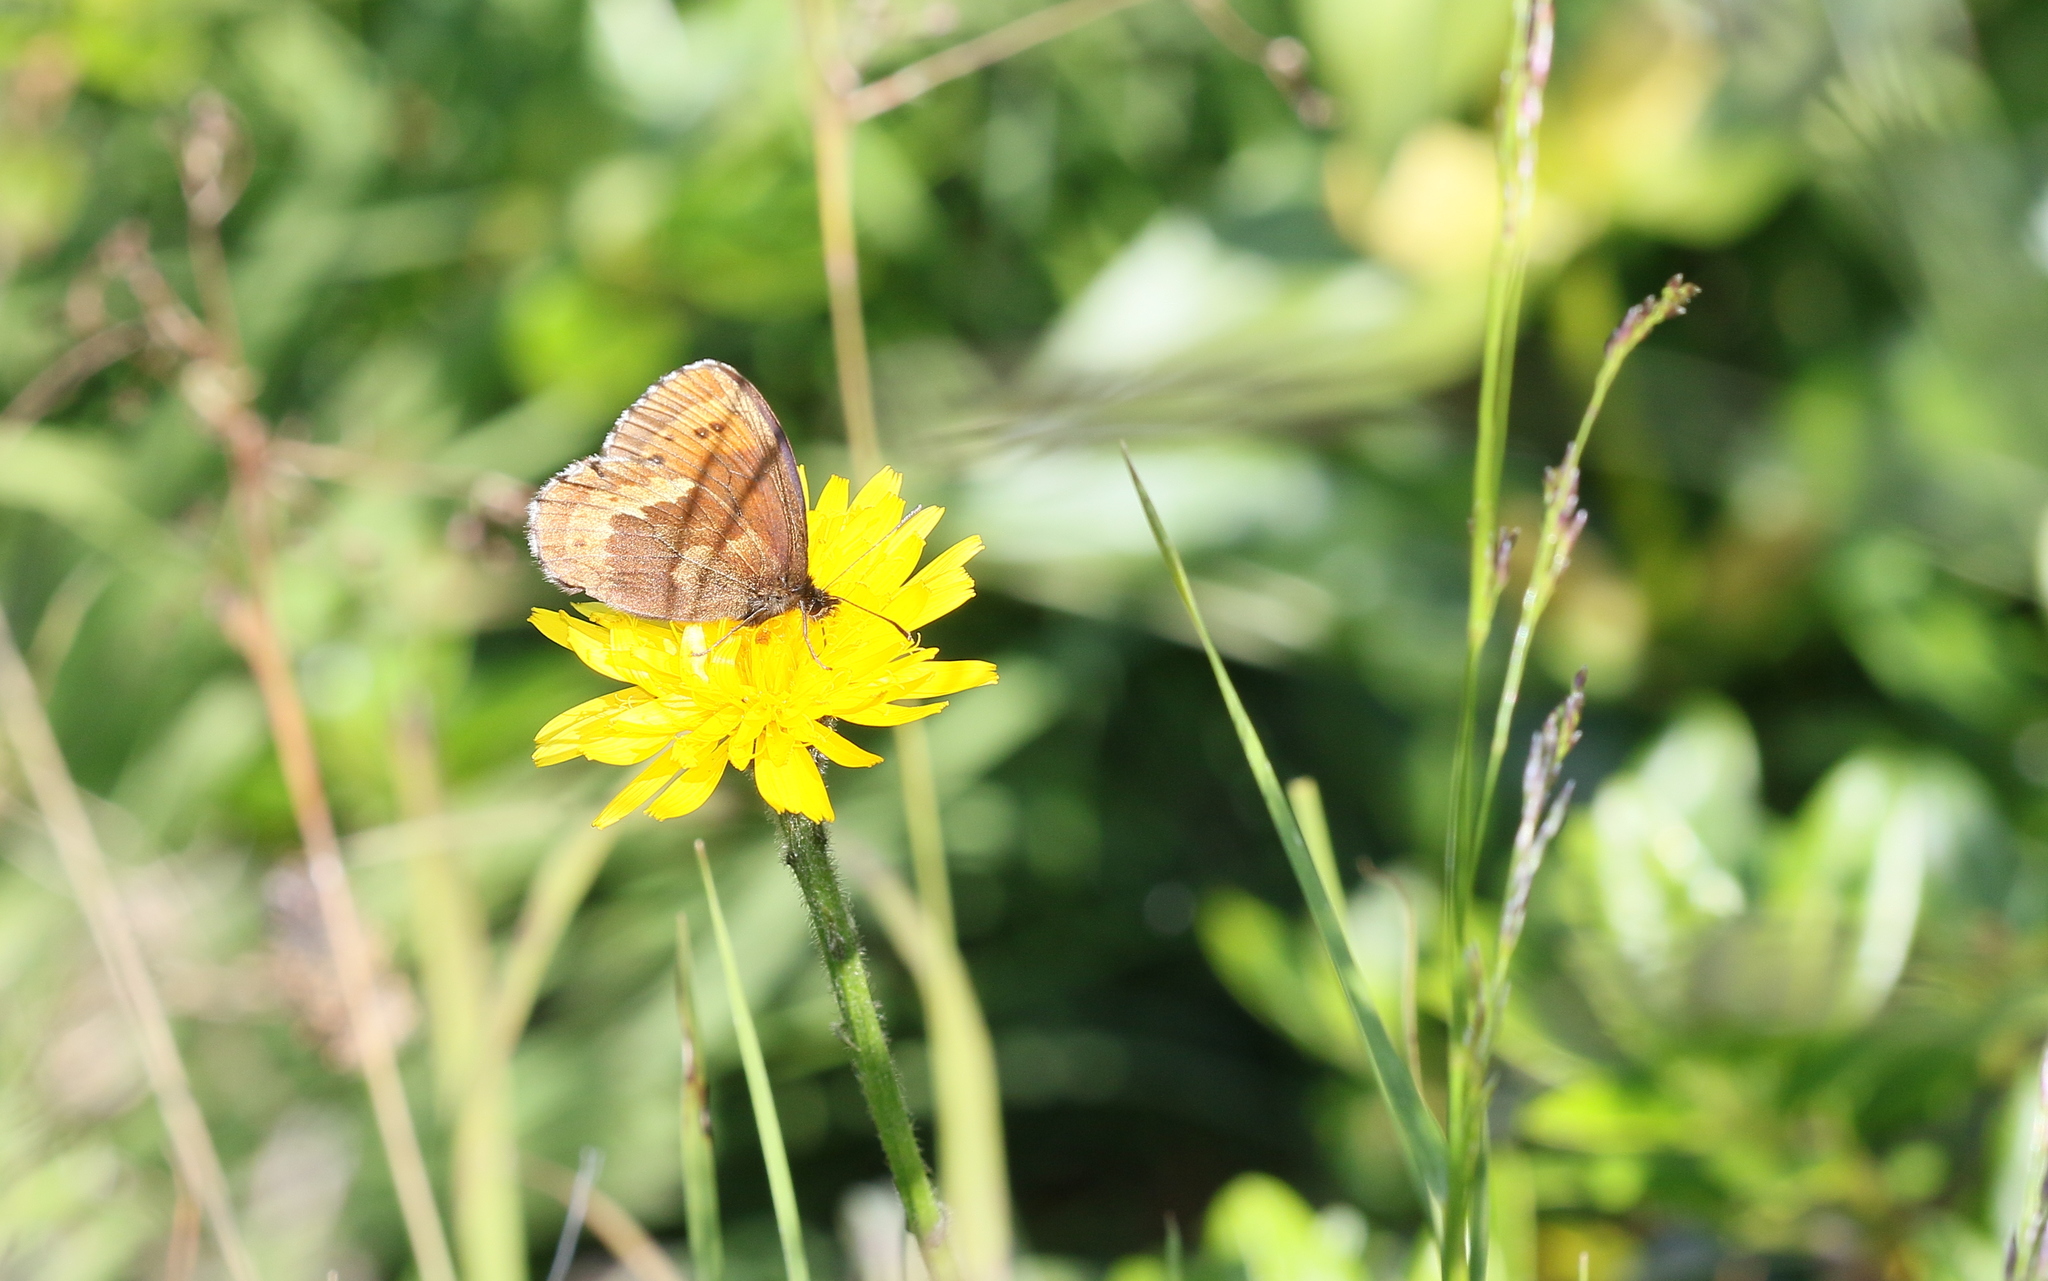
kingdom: Animalia
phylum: Arthropoda
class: Insecta
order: Lepidoptera
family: Nymphalidae
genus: Erebia
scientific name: Erebia euryale
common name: Large ringlet
